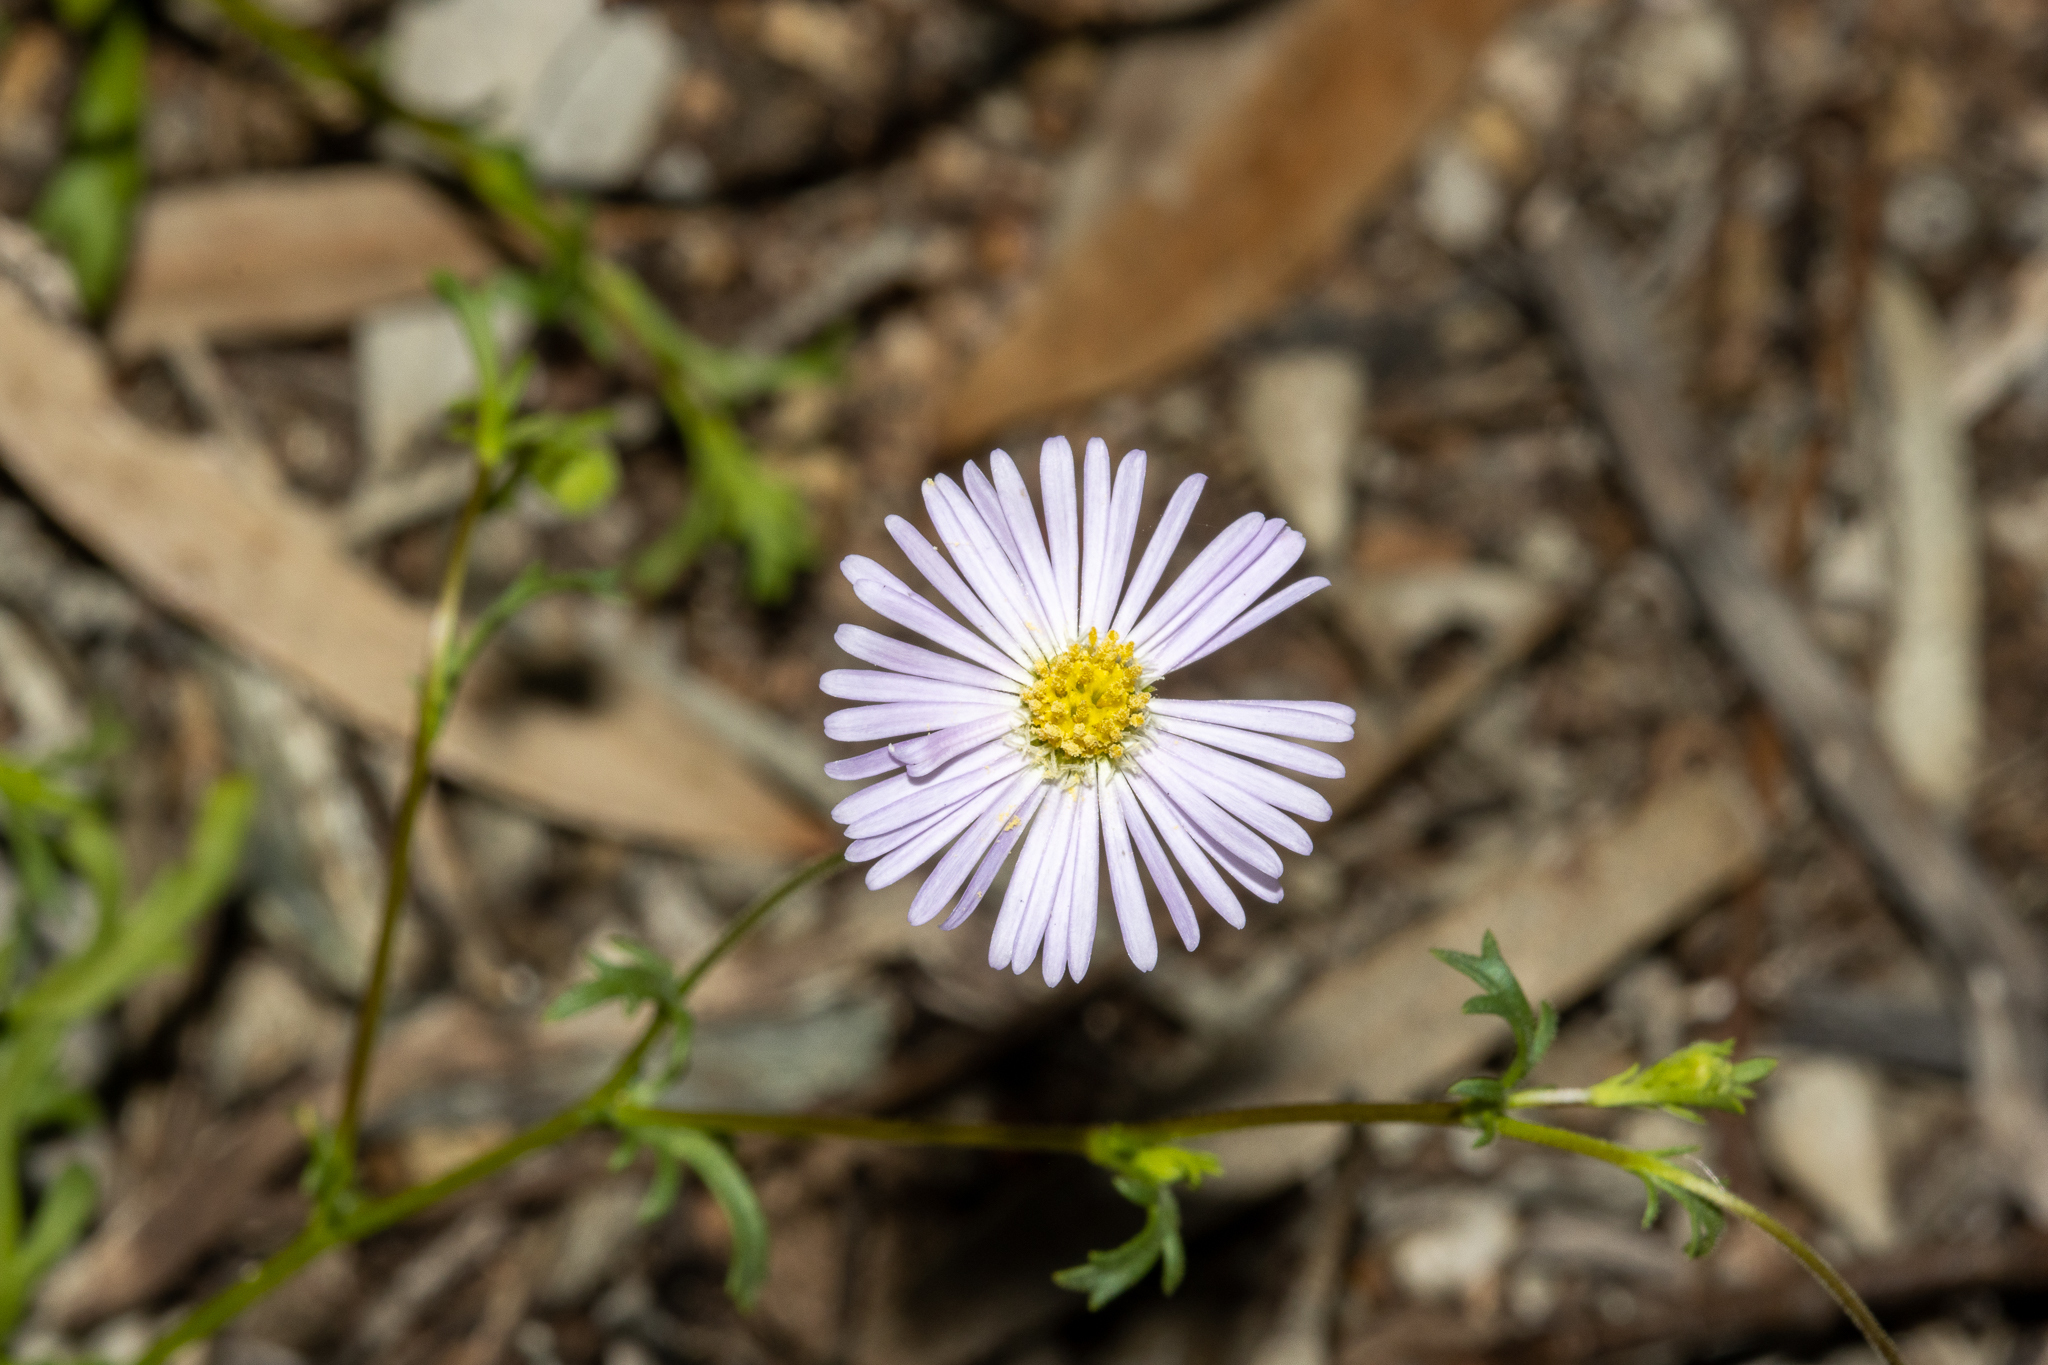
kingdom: Plantae
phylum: Tracheophyta
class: Magnoliopsida
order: Asterales
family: Asteraceae
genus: Brachyscome
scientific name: Brachyscome ciliaris
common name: Variable daisy
